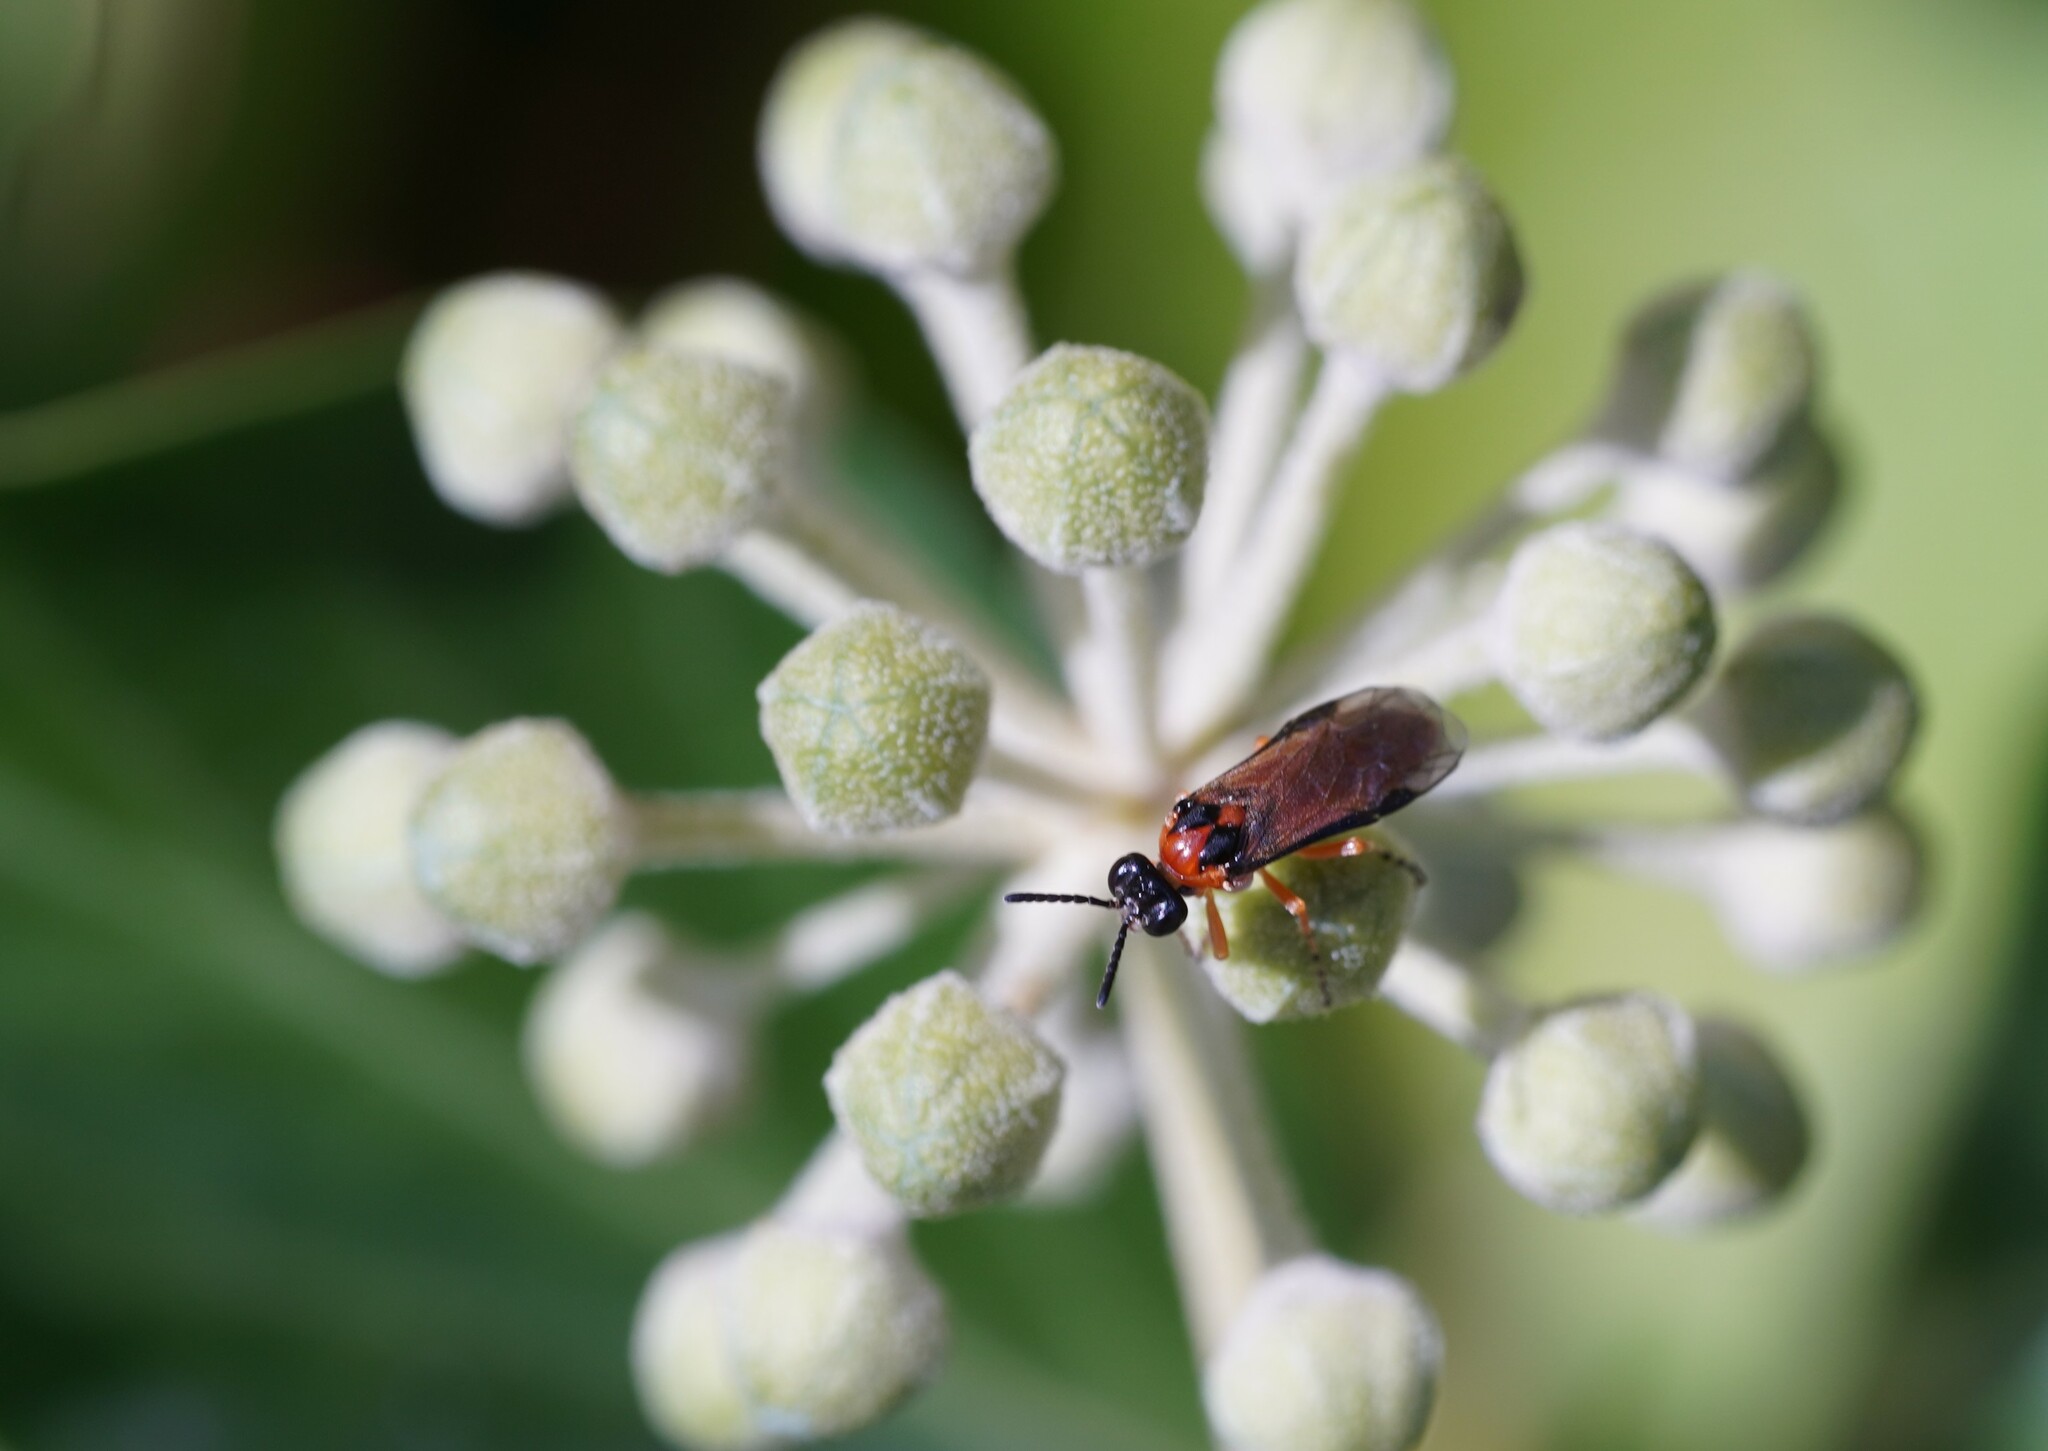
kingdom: Animalia
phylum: Arthropoda
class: Insecta
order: Hymenoptera
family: Tenthredinidae
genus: Athalia
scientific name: Athalia rosae
